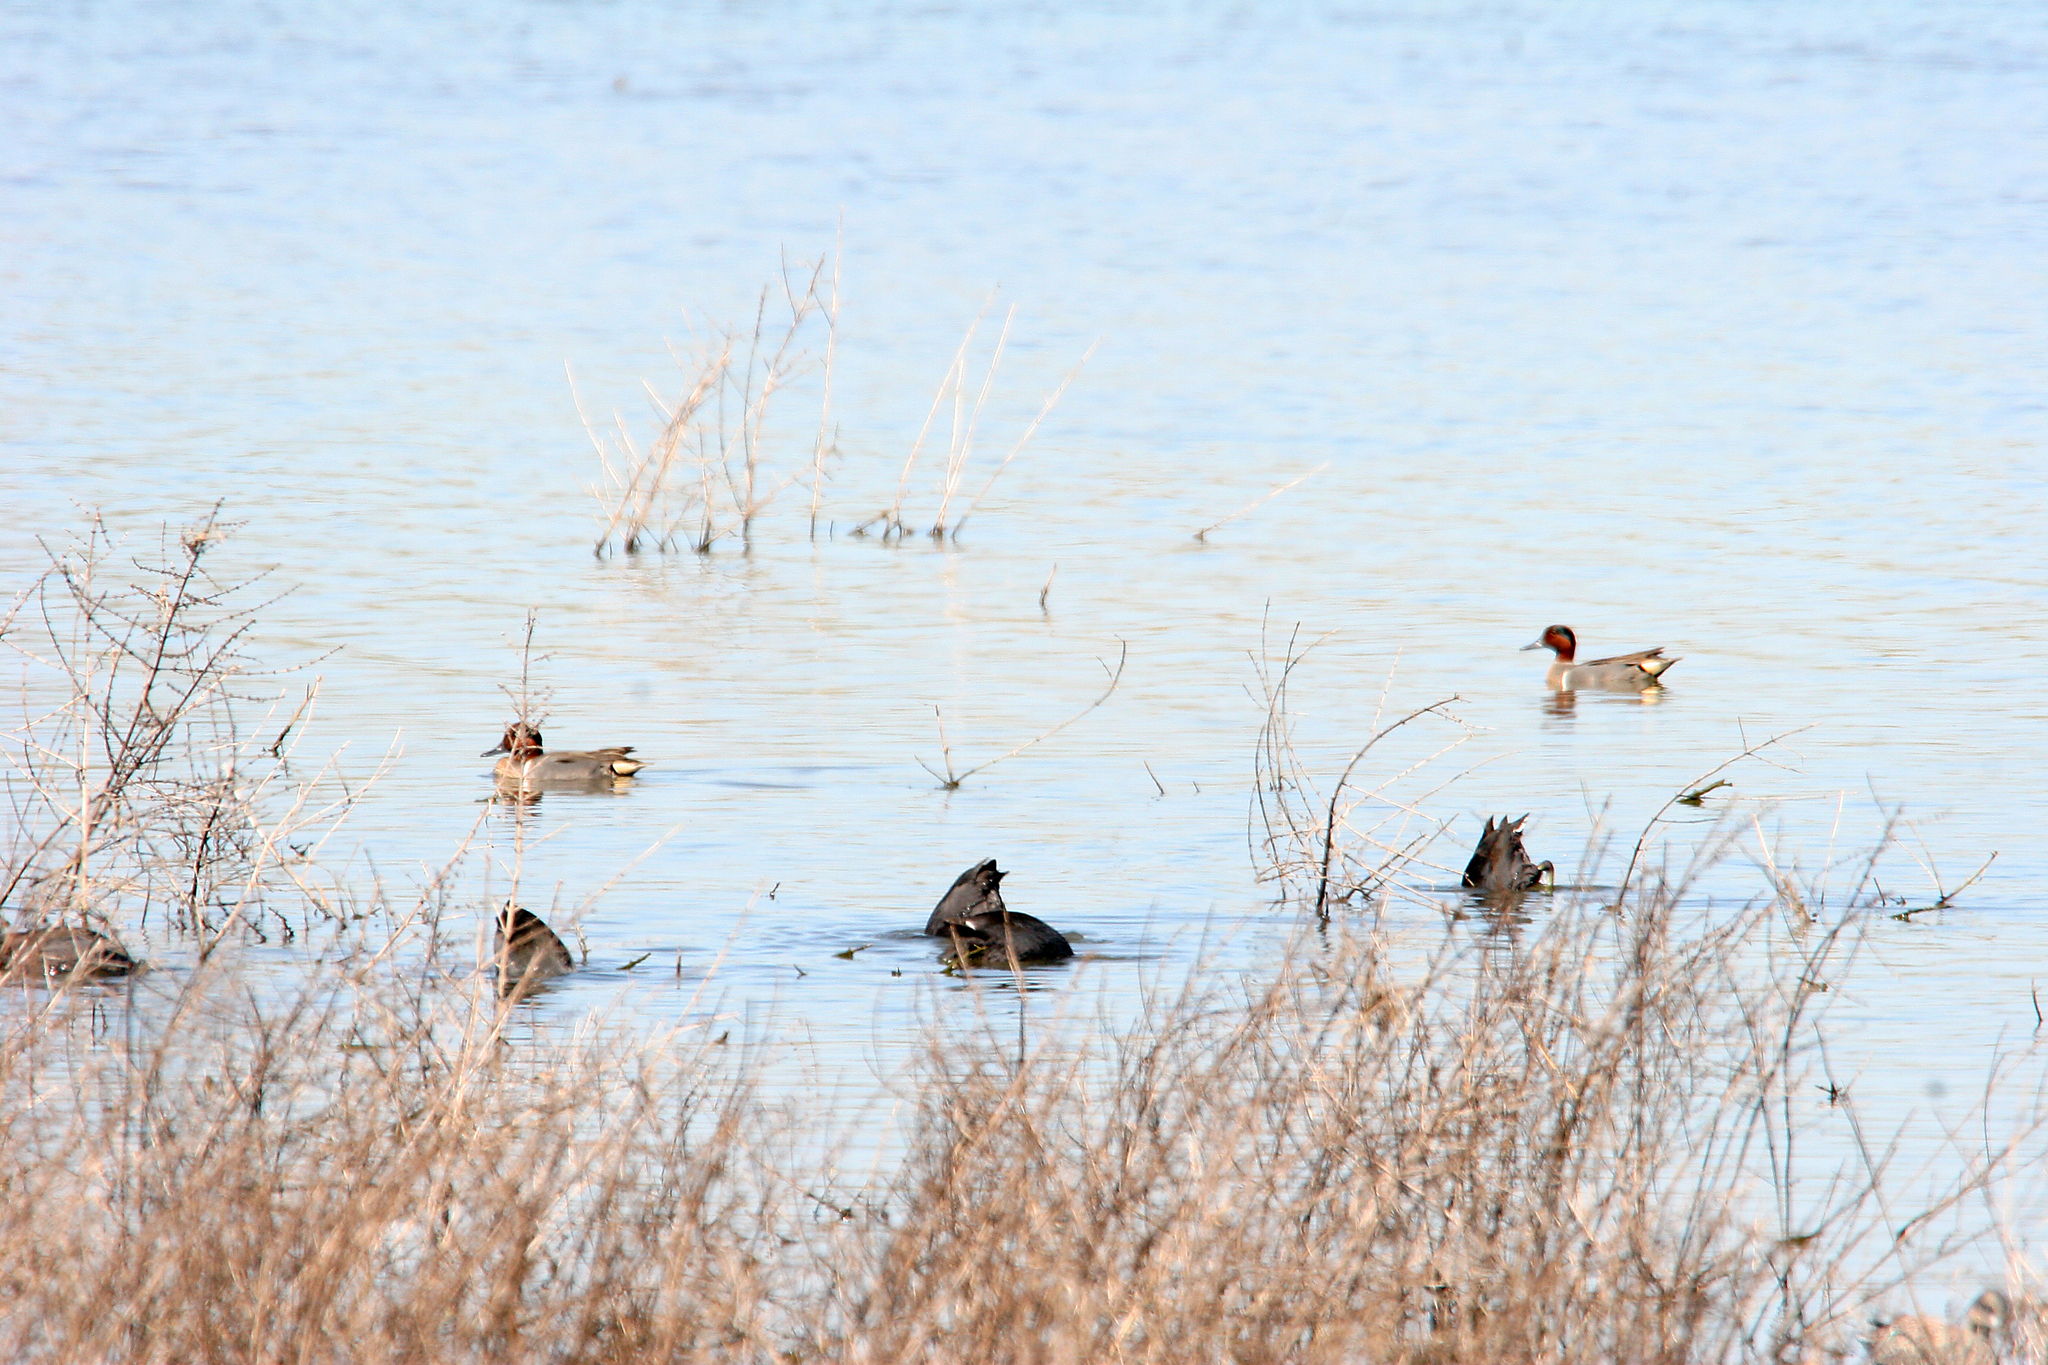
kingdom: Animalia
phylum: Chordata
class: Aves
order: Gruiformes
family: Rallidae
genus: Fulica
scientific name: Fulica americana
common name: American coot
